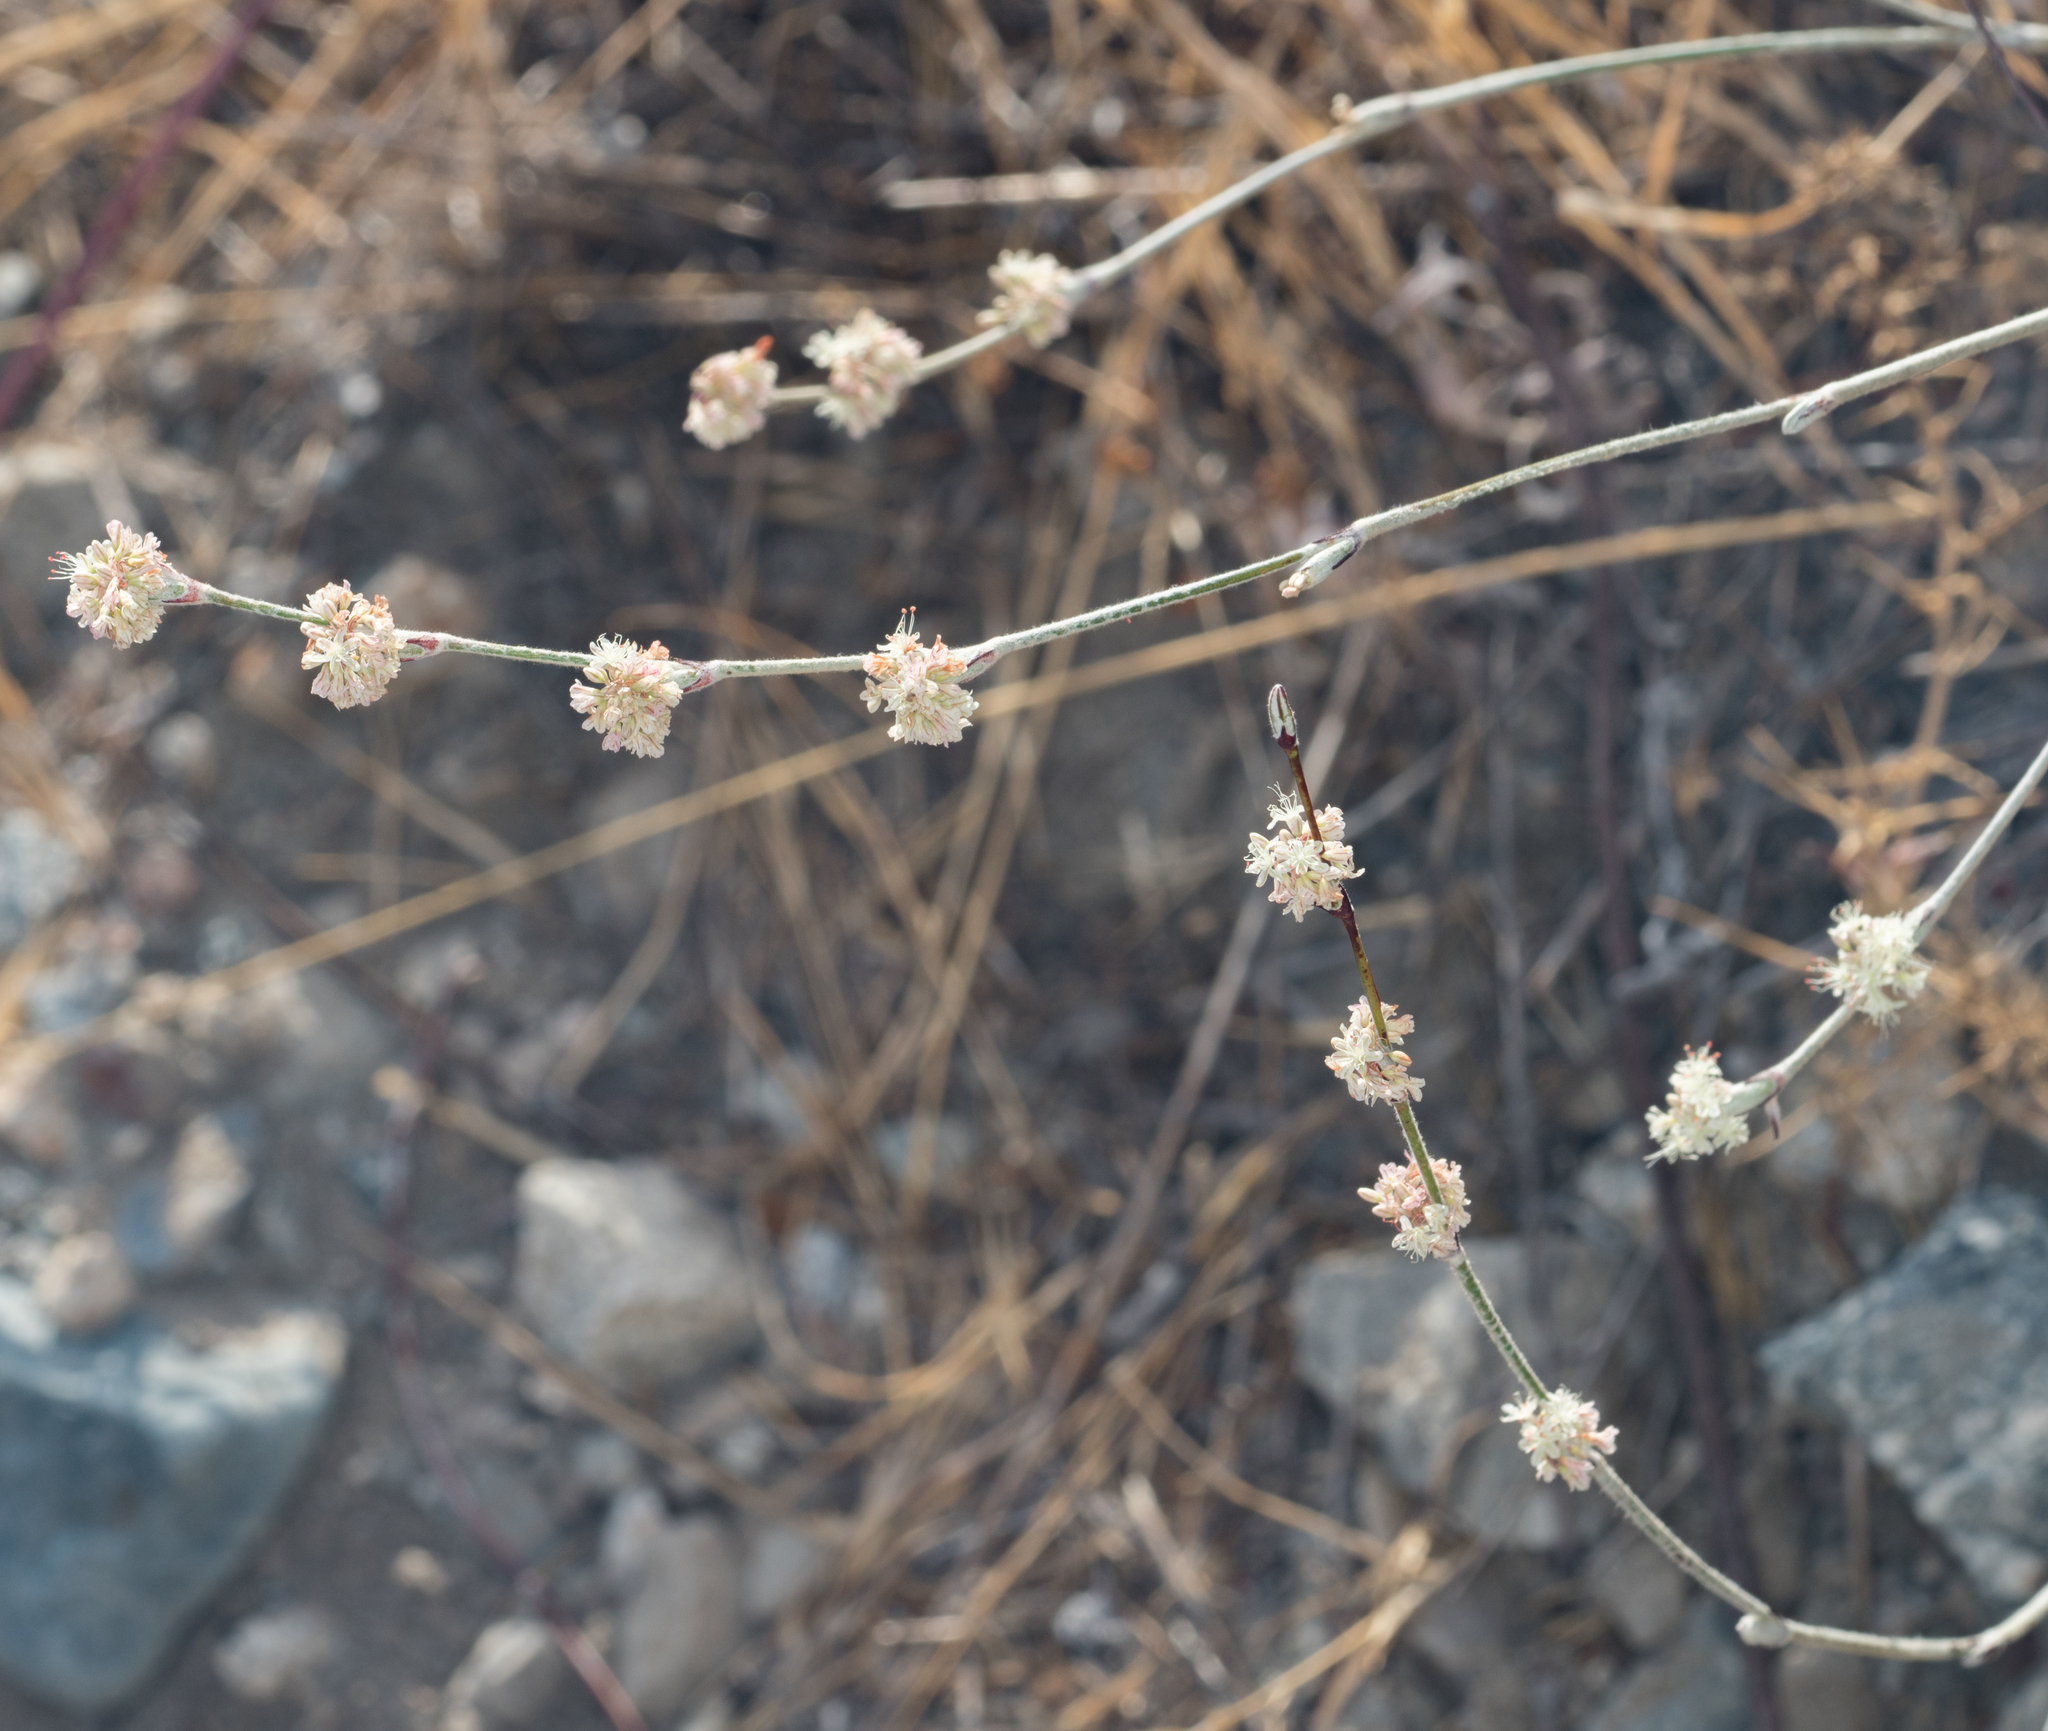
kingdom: Plantae
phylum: Tracheophyta
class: Magnoliopsida
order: Caryophyllales
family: Polygonaceae
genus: Eriogonum
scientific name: Eriogonum elongatum
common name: Long-stem wild buckwheat
